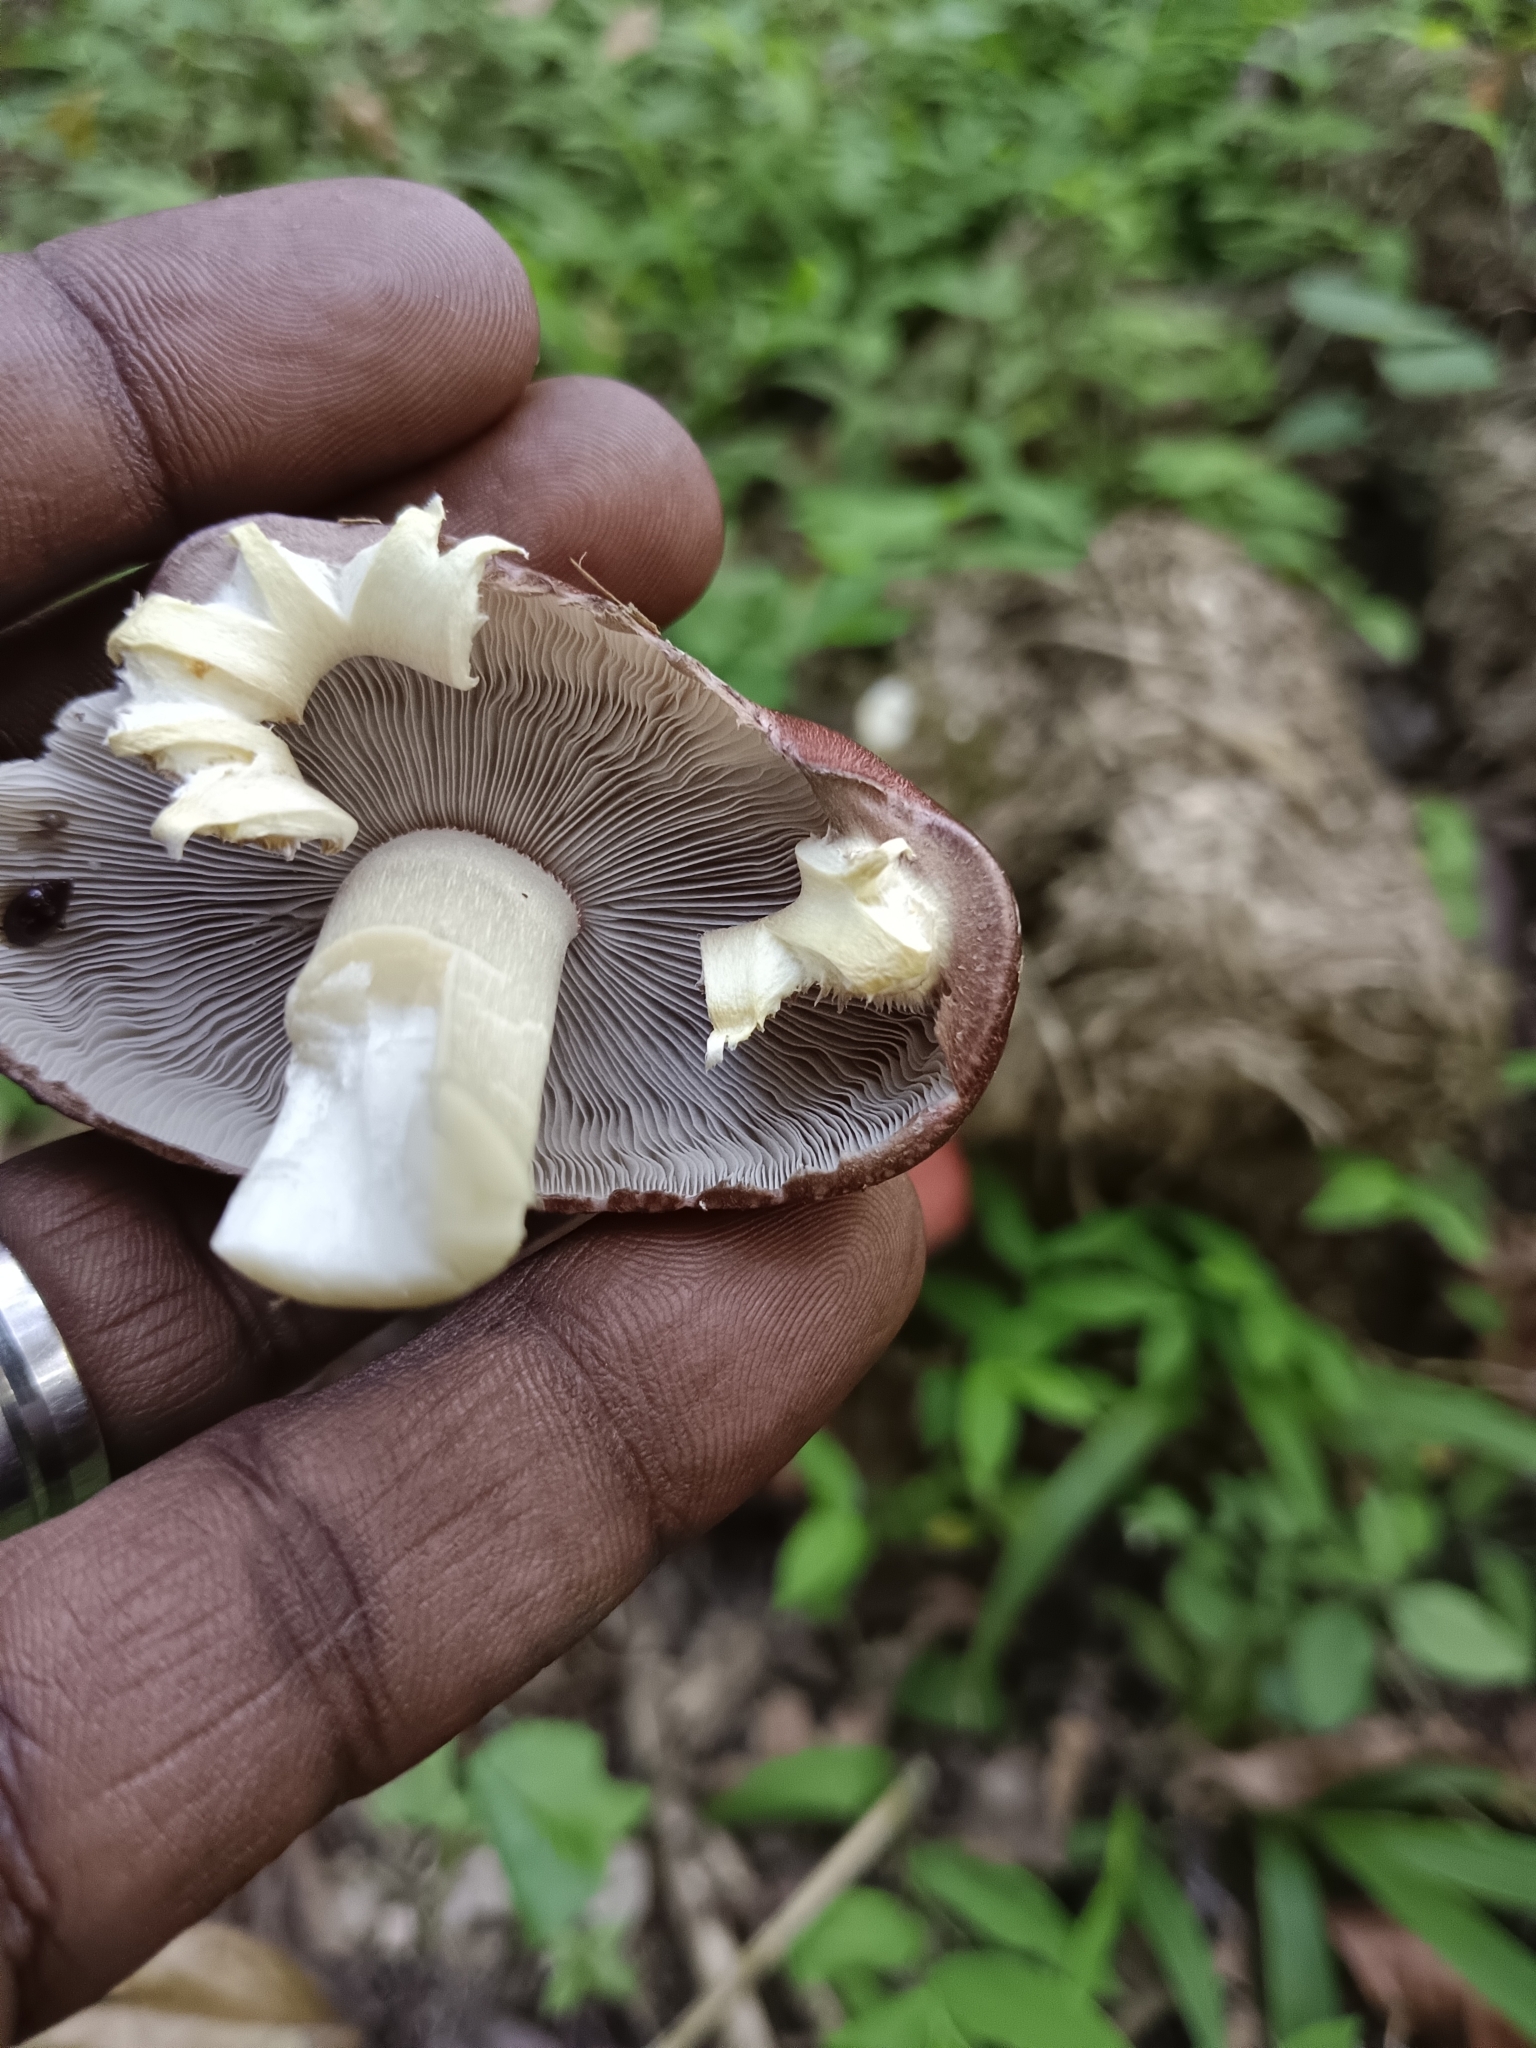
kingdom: Fungi
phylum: Basidiomycota
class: Agaricomycetes
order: Agaricales
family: Strophariaceae
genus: Stropharia
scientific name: Stropharia rugosoannulata
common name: Wine roundhead
